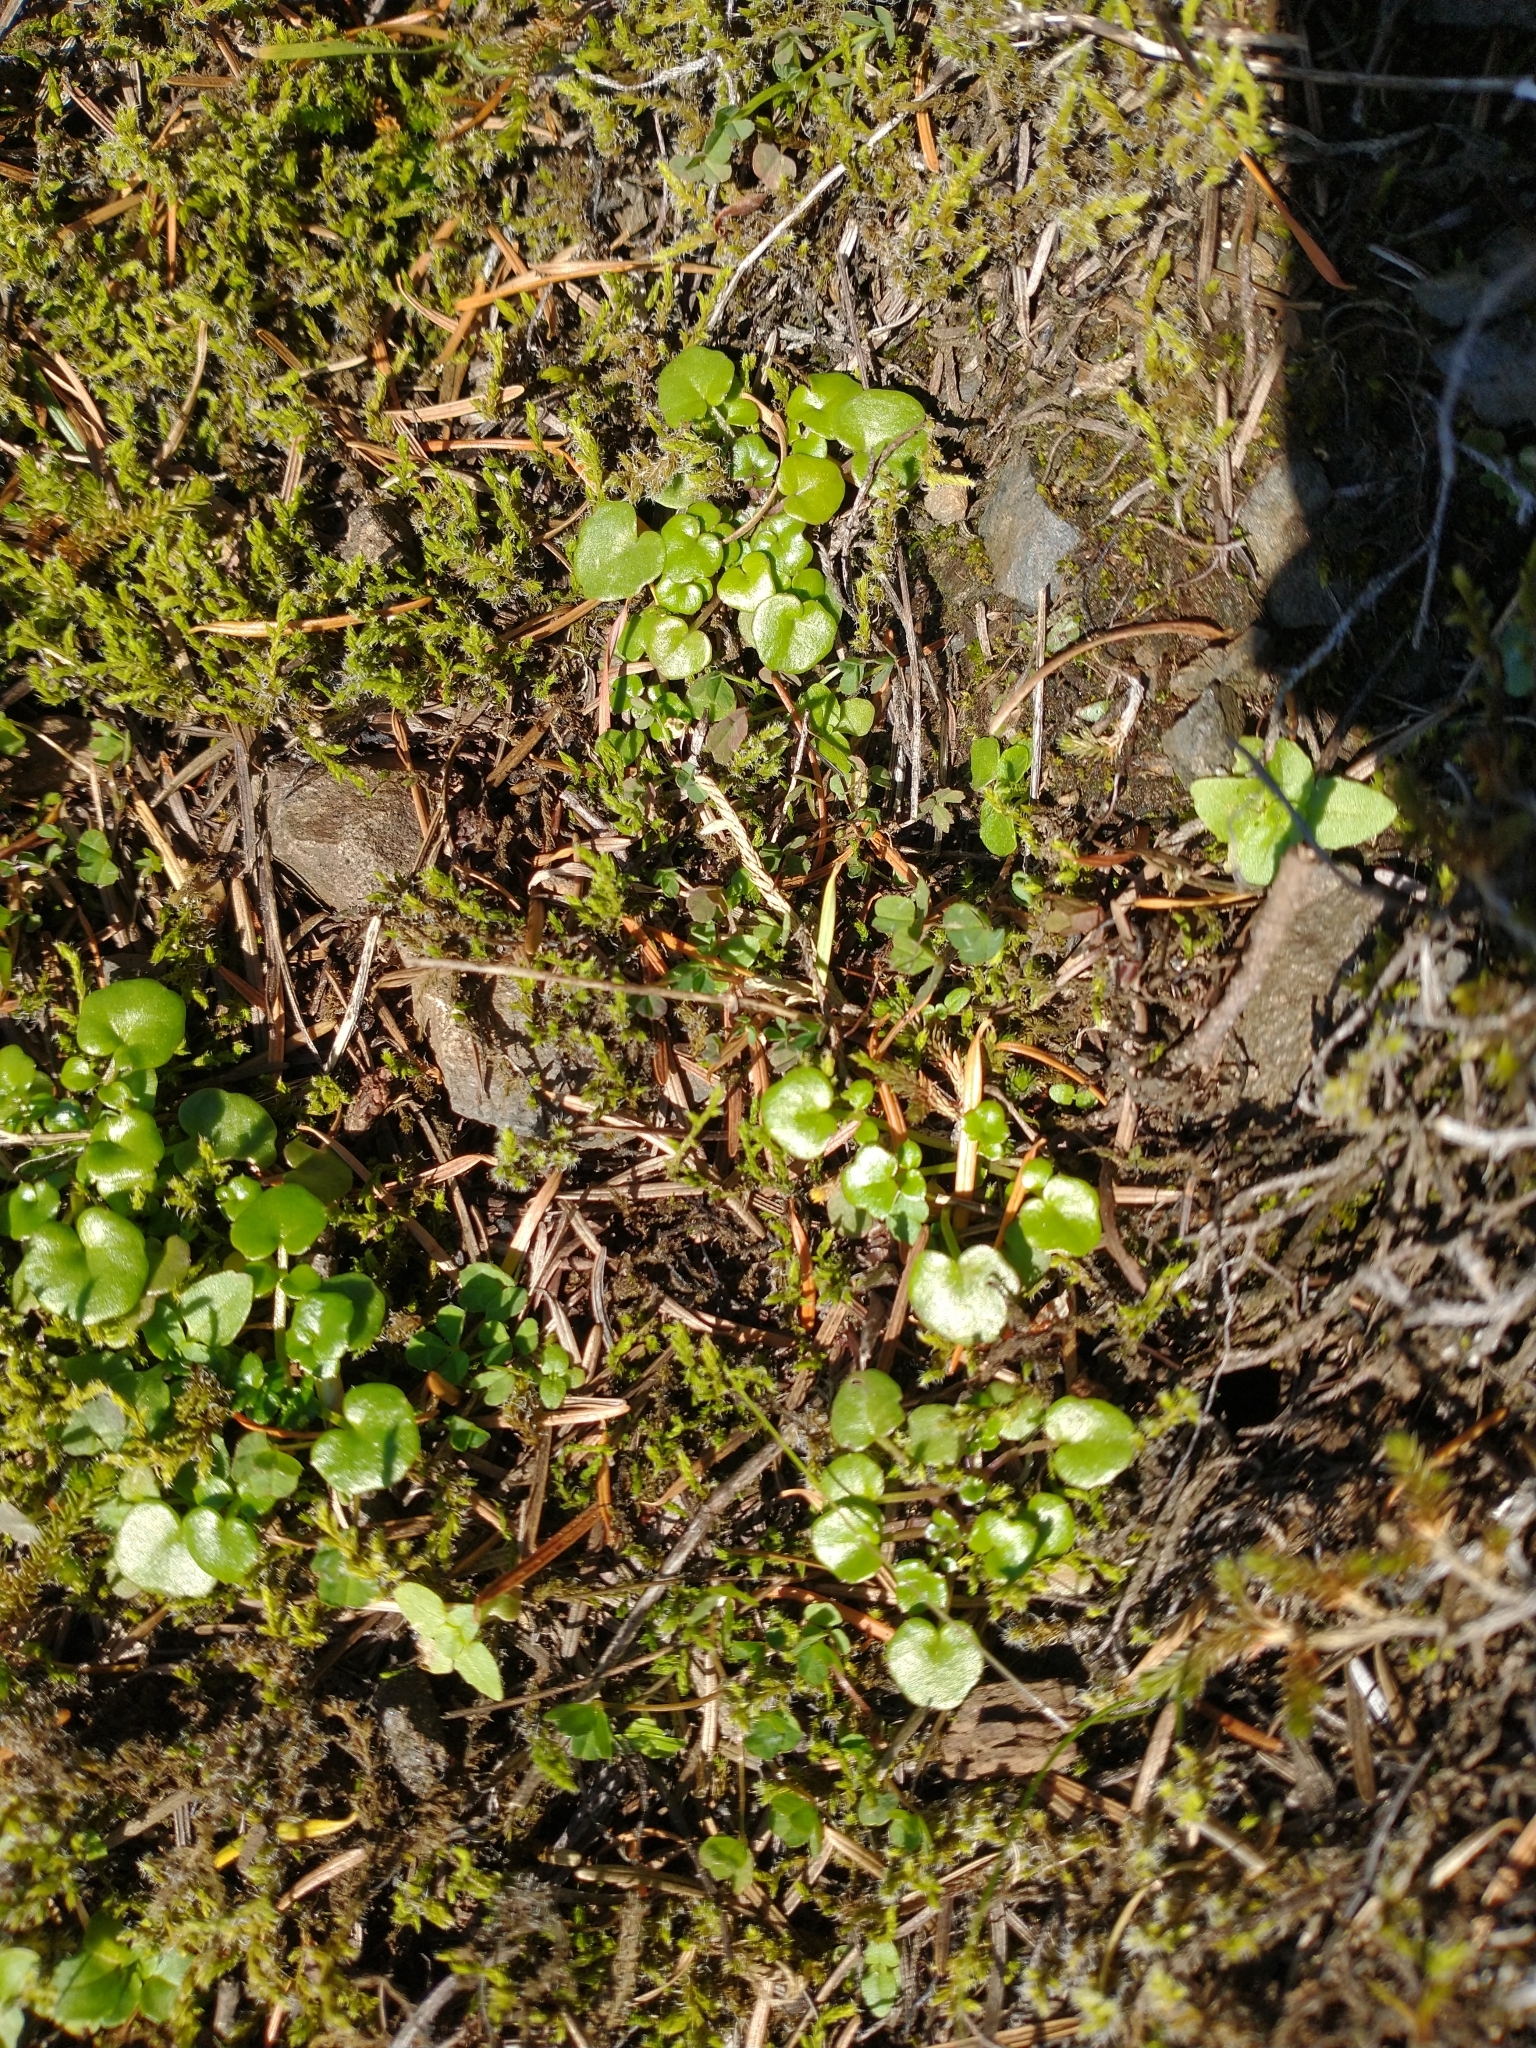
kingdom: Plantae
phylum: Tracheophyta
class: Magnoliopsida
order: Brassicales
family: Brassicaceae
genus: Cardamine
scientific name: Cardamine pattersonii
